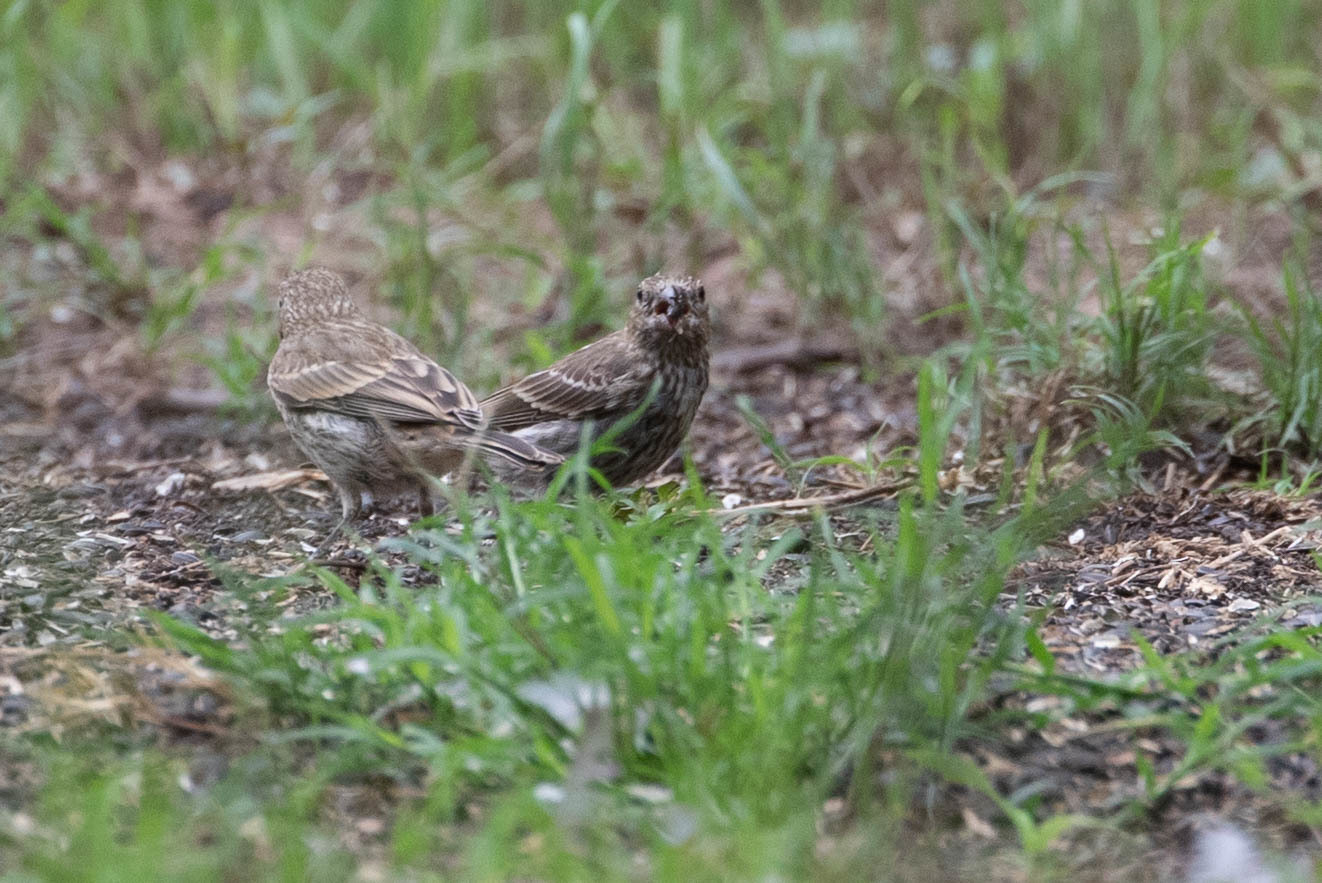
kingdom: Animalia
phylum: Chordata
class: Aves
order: Passeriformes
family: Fringillidae
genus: Haemorhous
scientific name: Haemorhous mexicanus
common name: House finch
